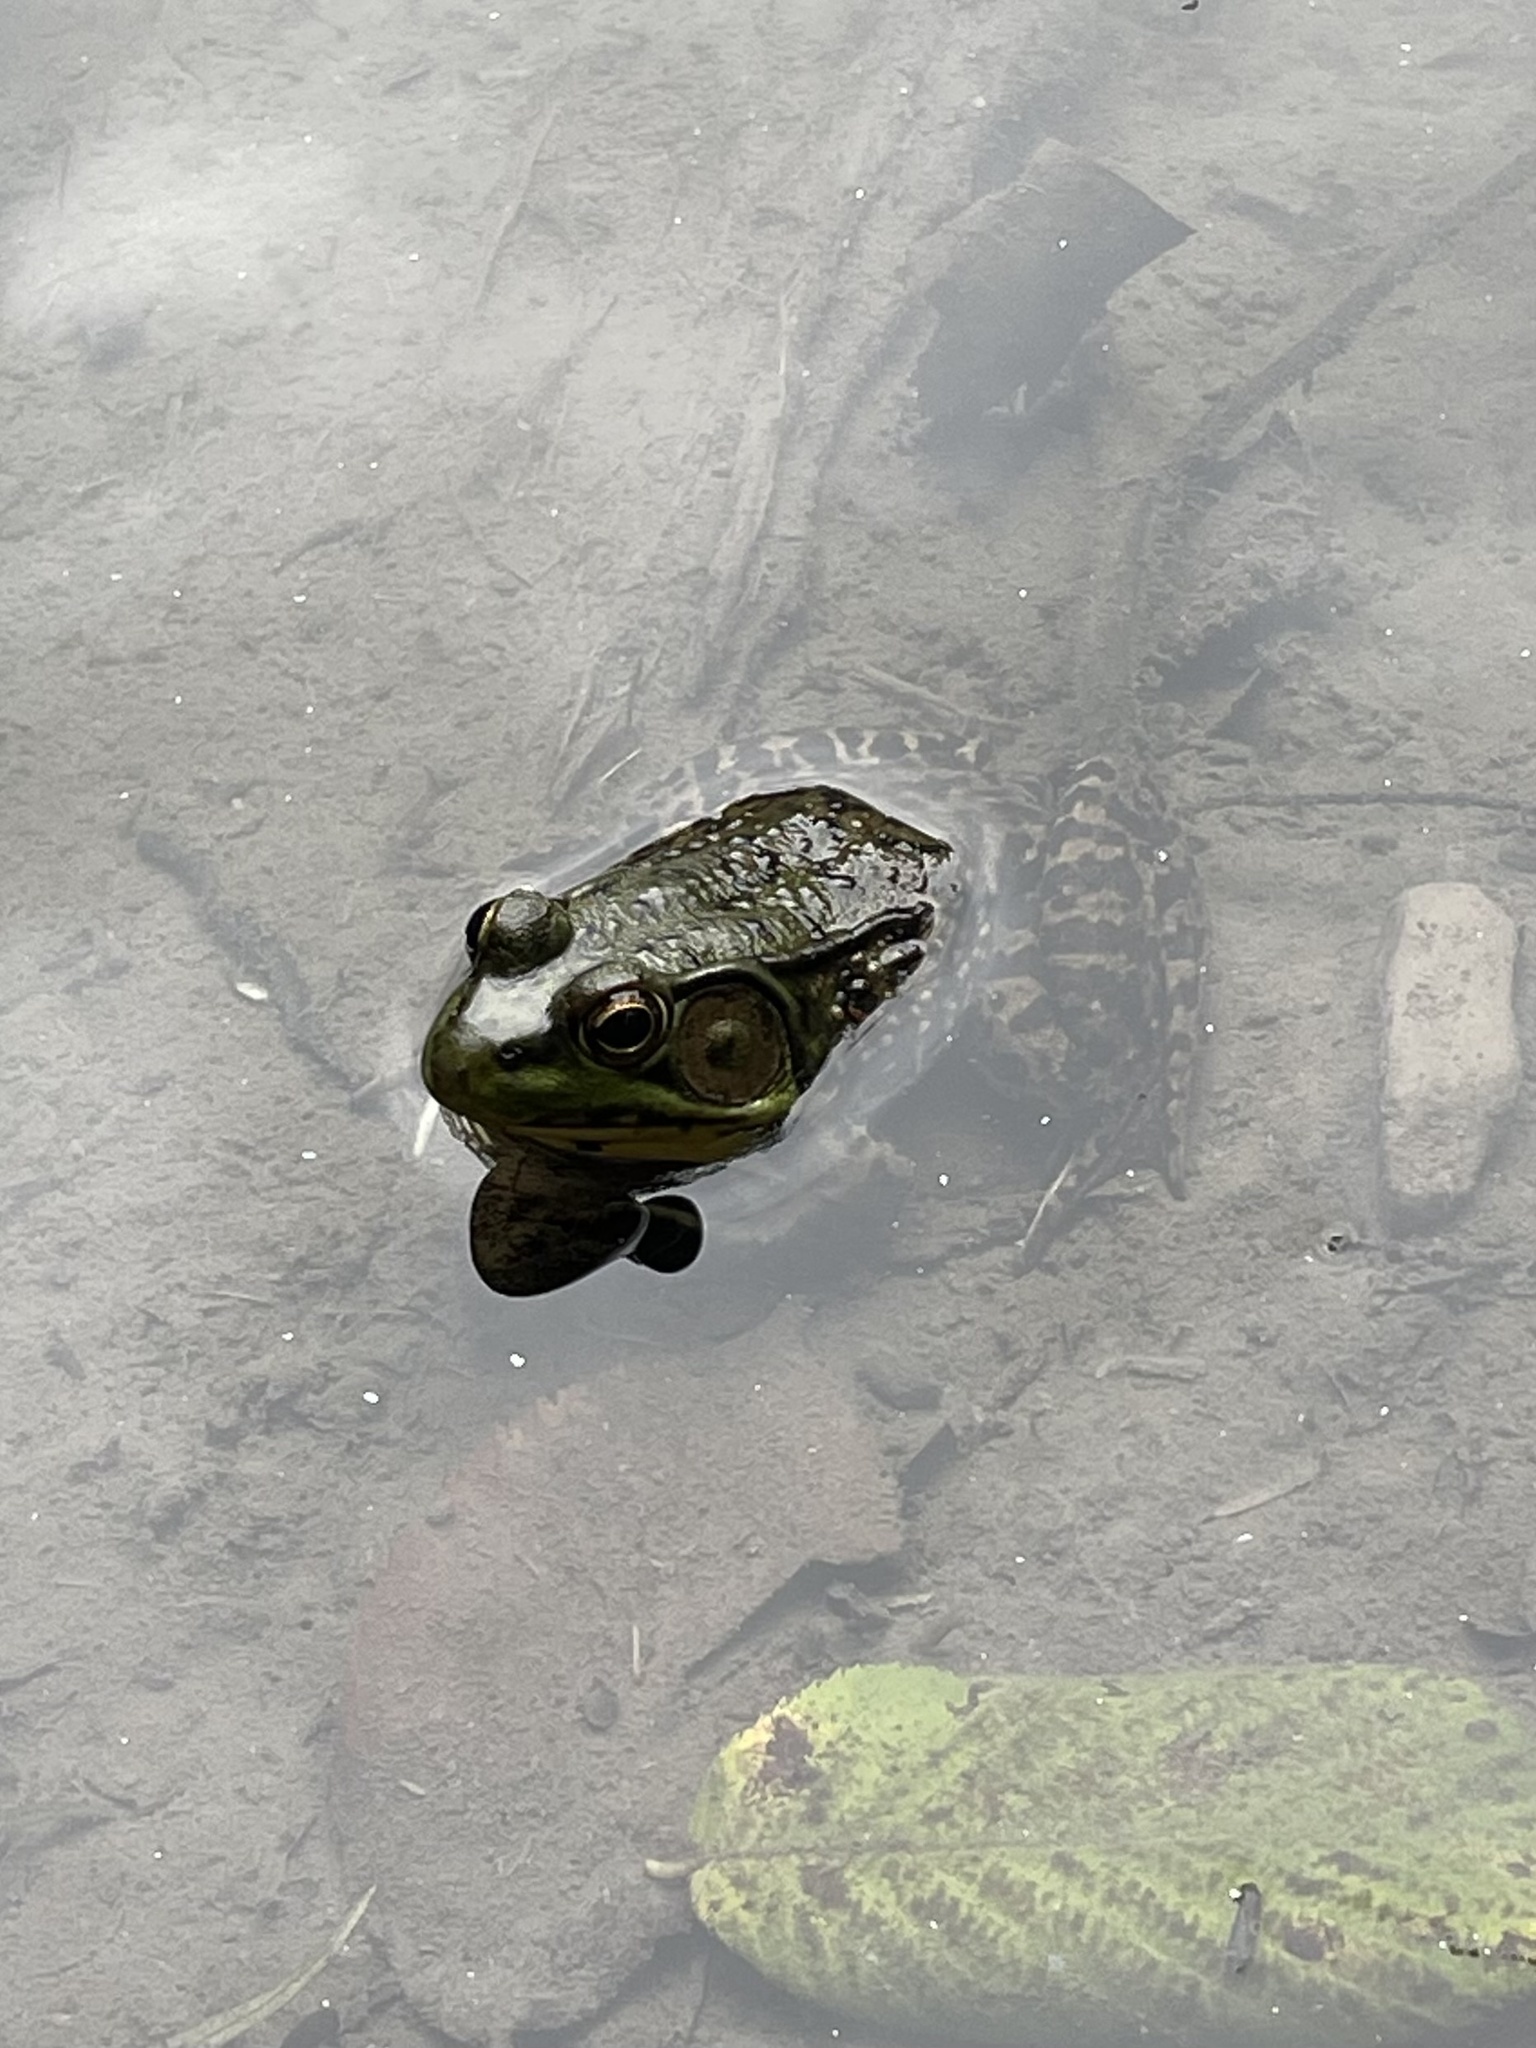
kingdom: Animalia
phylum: Chordata
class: Amphibia
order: Anura
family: Ranidae
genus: Lithobates
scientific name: Lithobates clamitans
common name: Green frog
